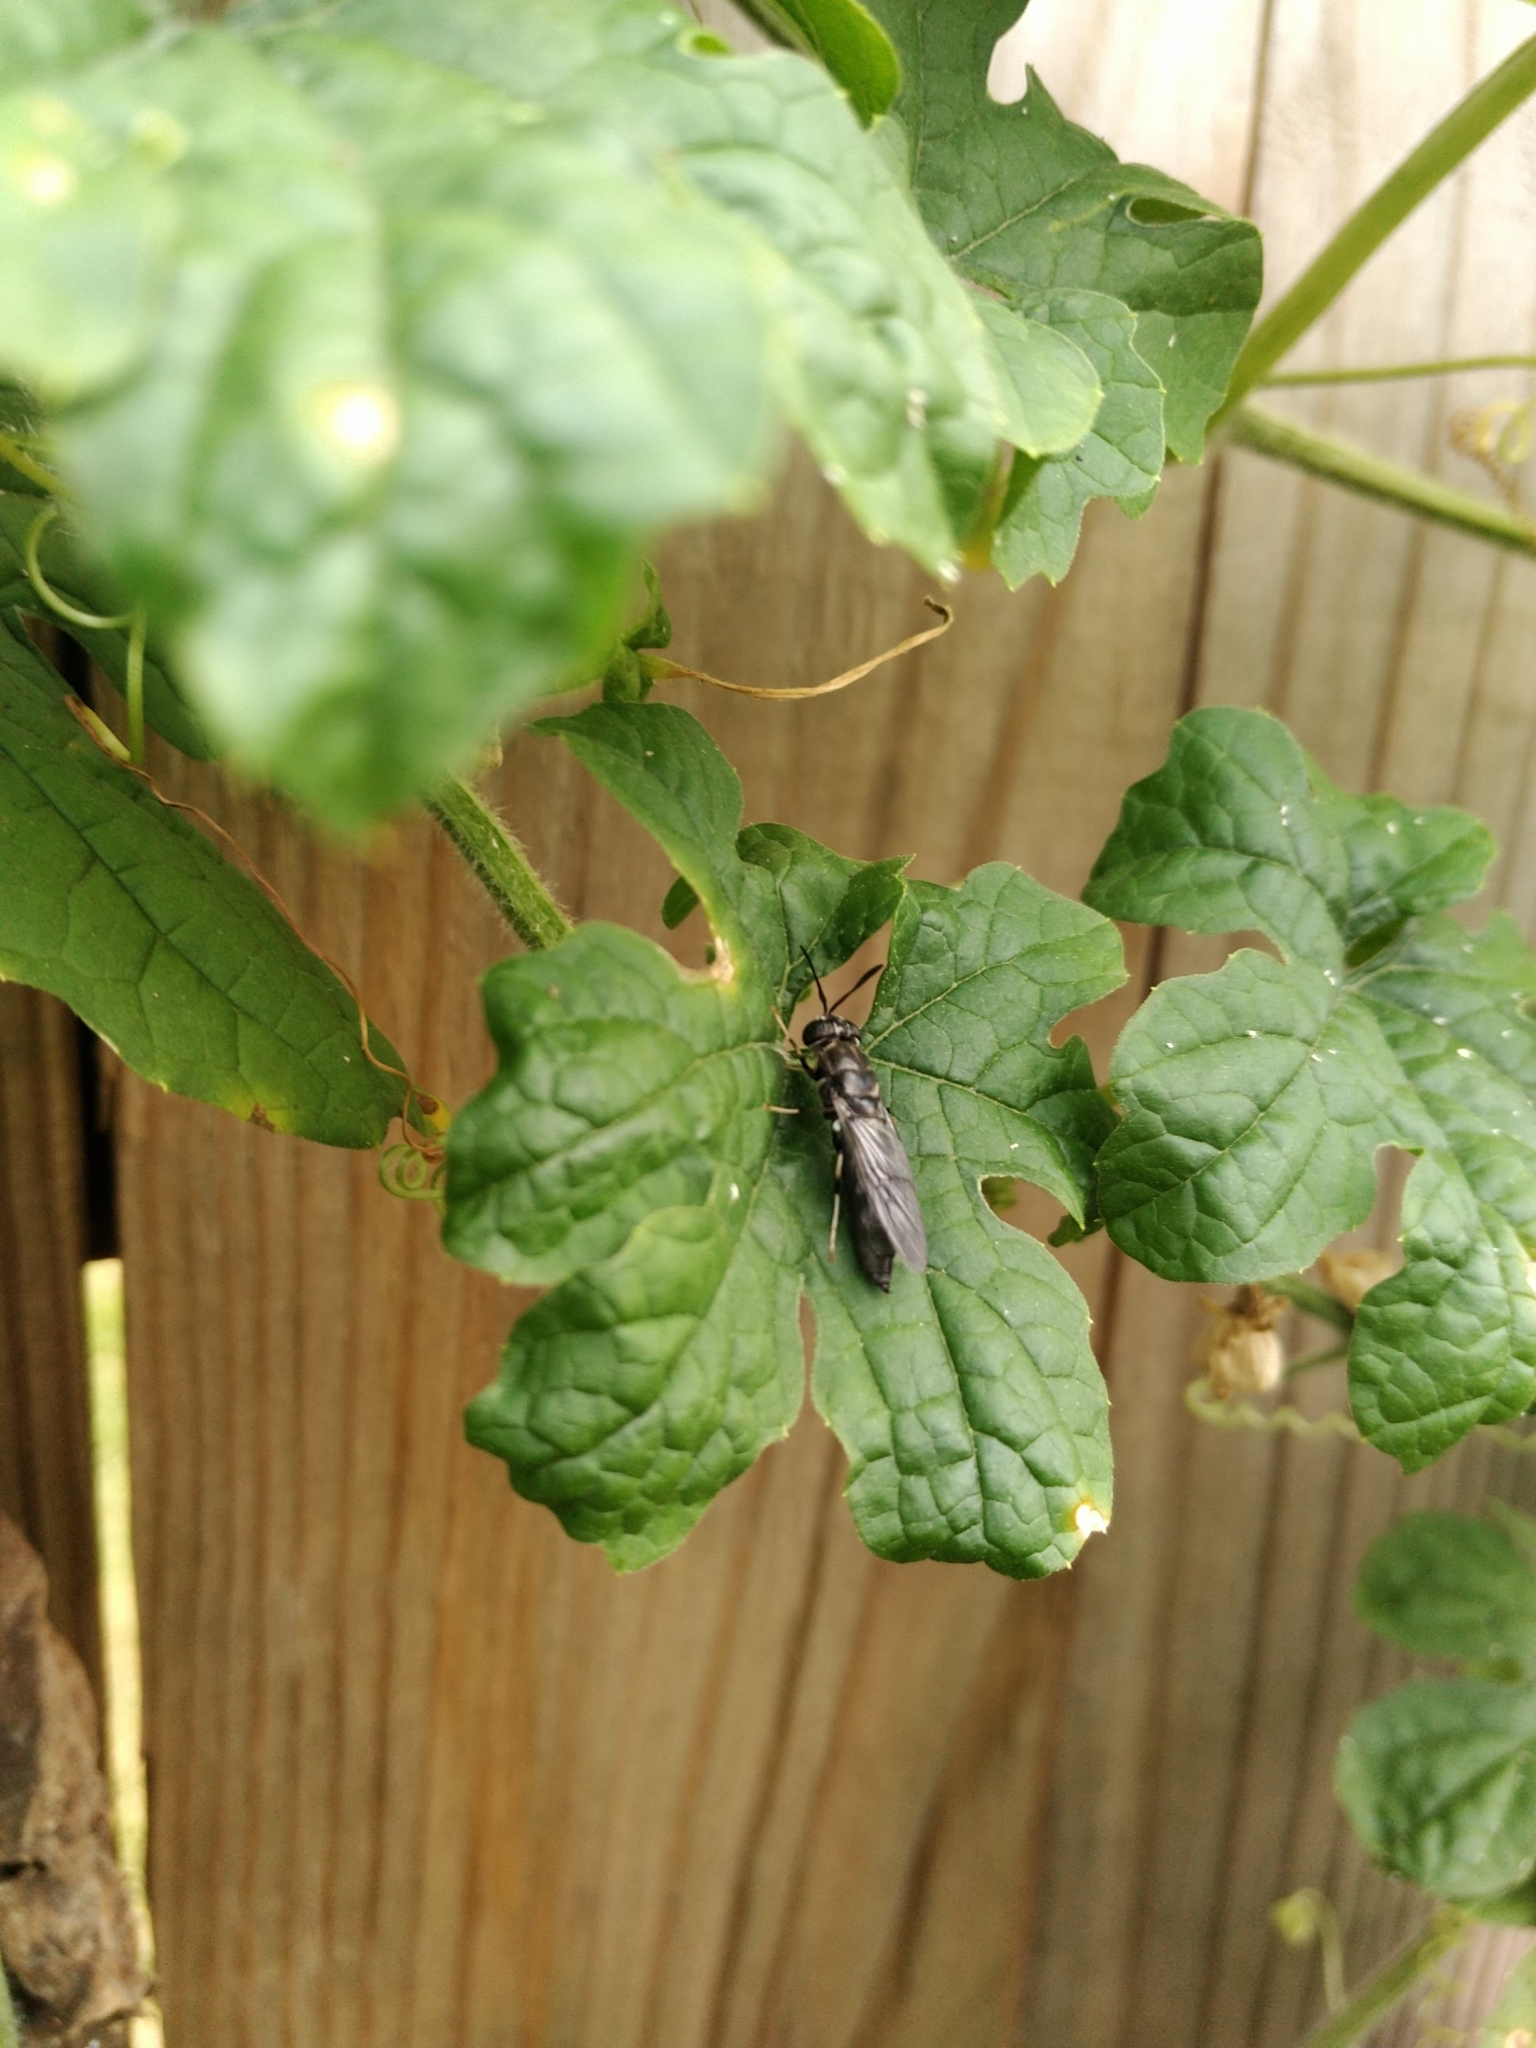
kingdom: Animalia
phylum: Arthropoda
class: Insecta
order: Diptera
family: Stratiomyidae
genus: Hermetia
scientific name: Hermetia illucens
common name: Black soldier fly
